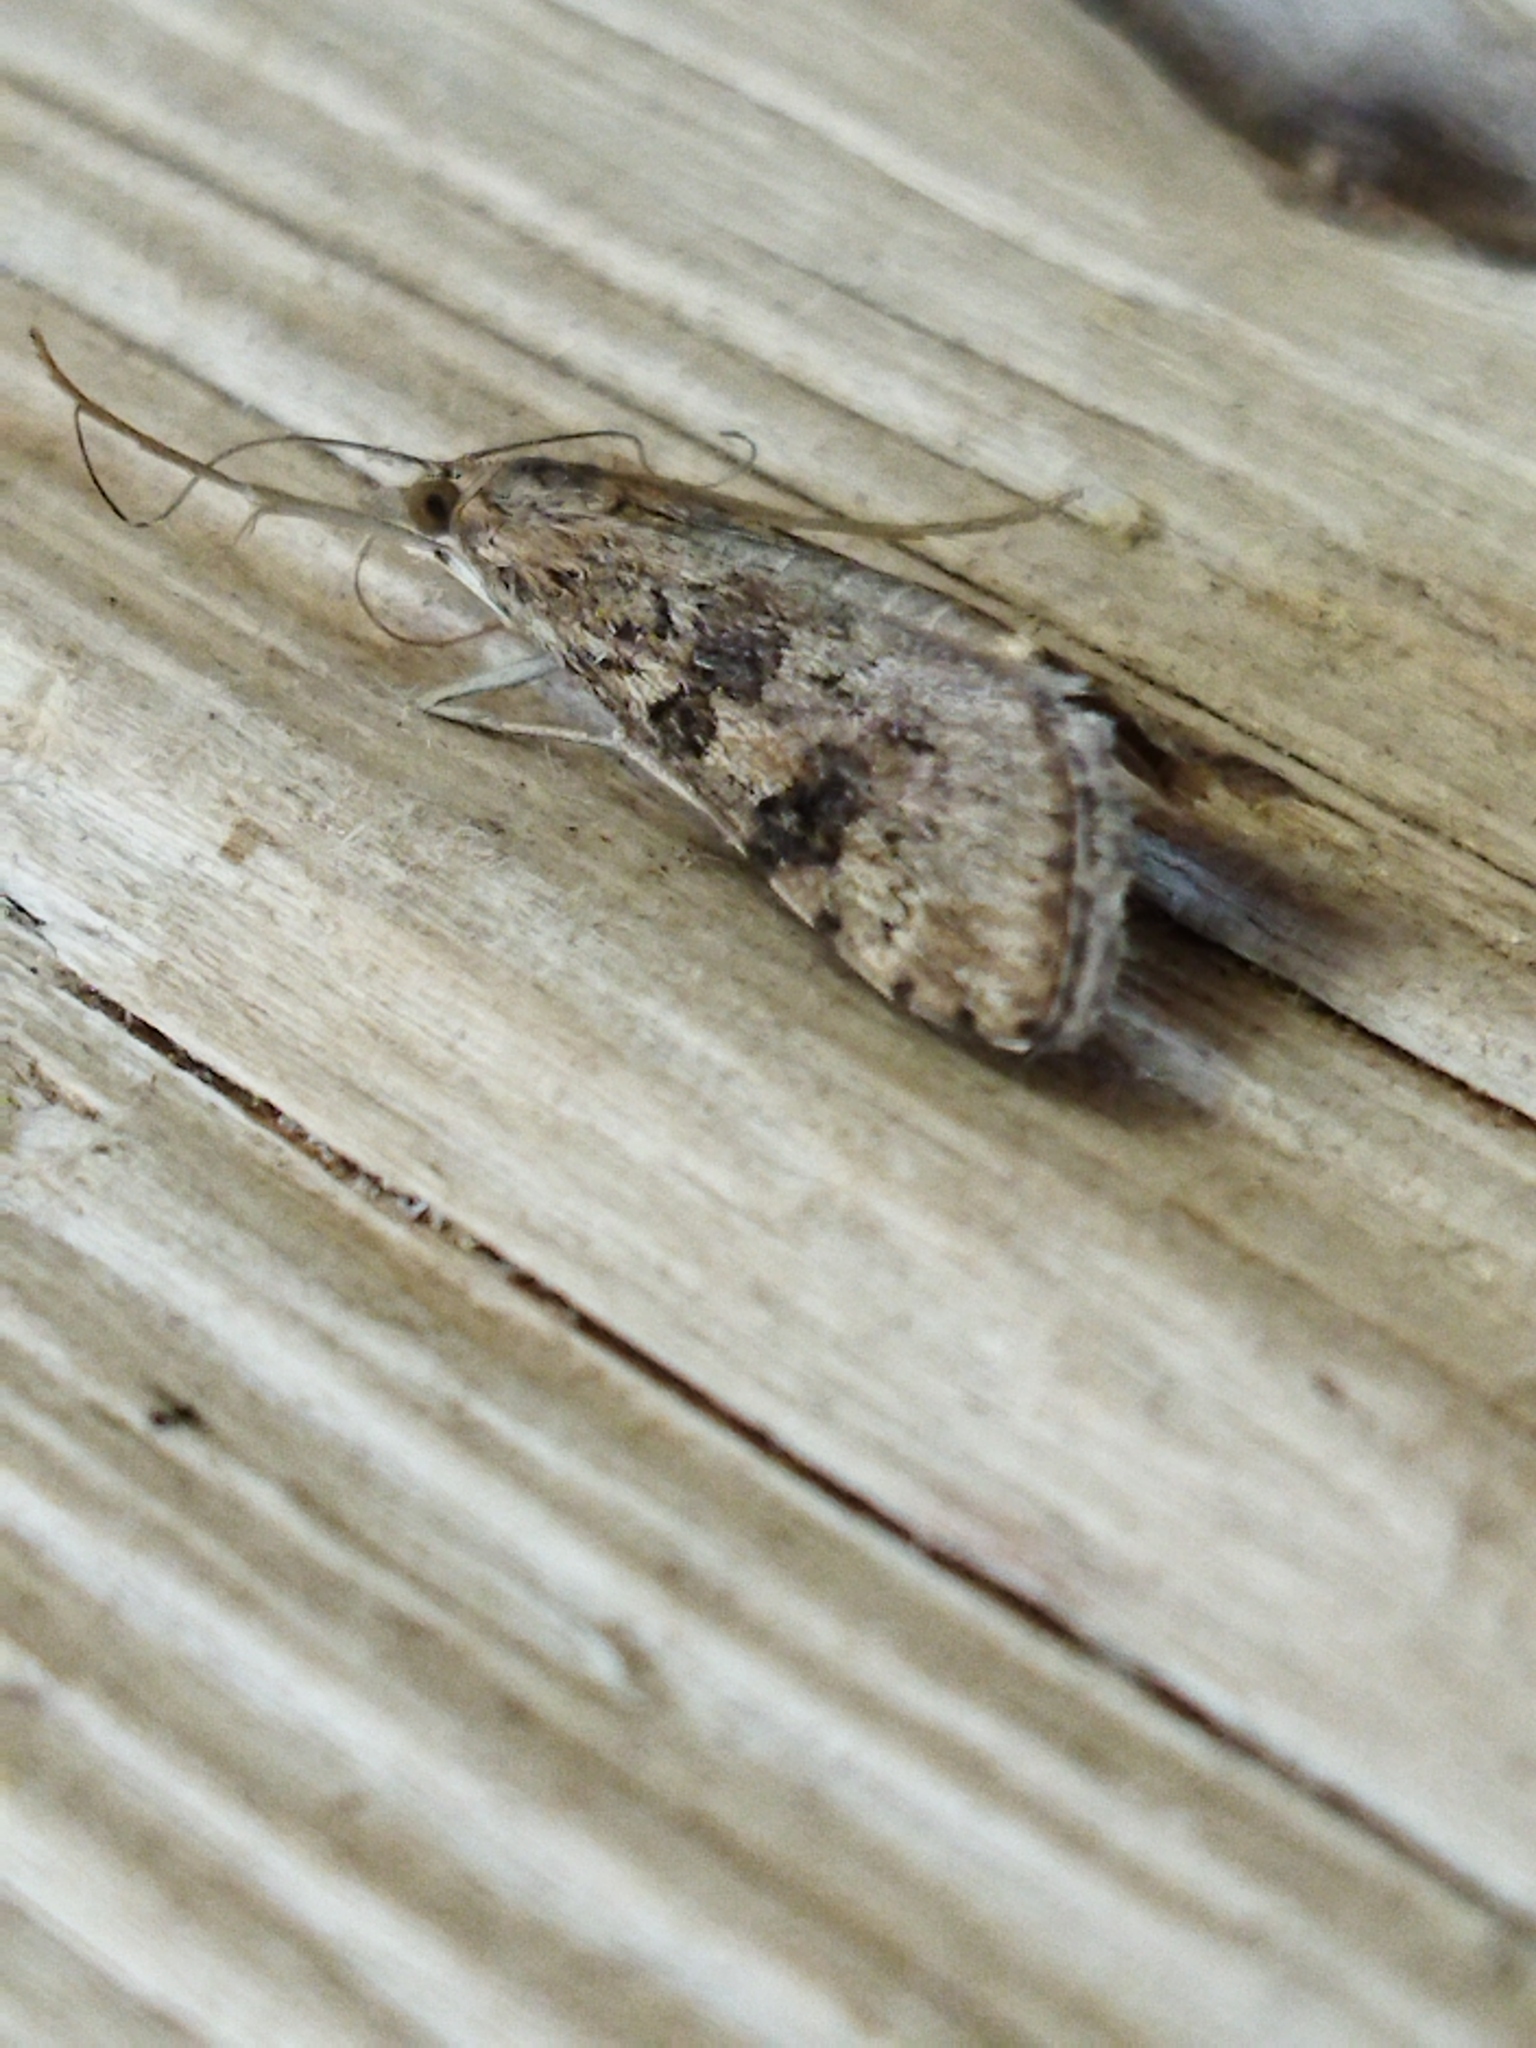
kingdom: Animalia
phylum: Arthropoda
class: Insecta
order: Lepidoptera
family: Crambidae
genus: Nomophila
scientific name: Nomophila noctuella
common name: Rush veneer
